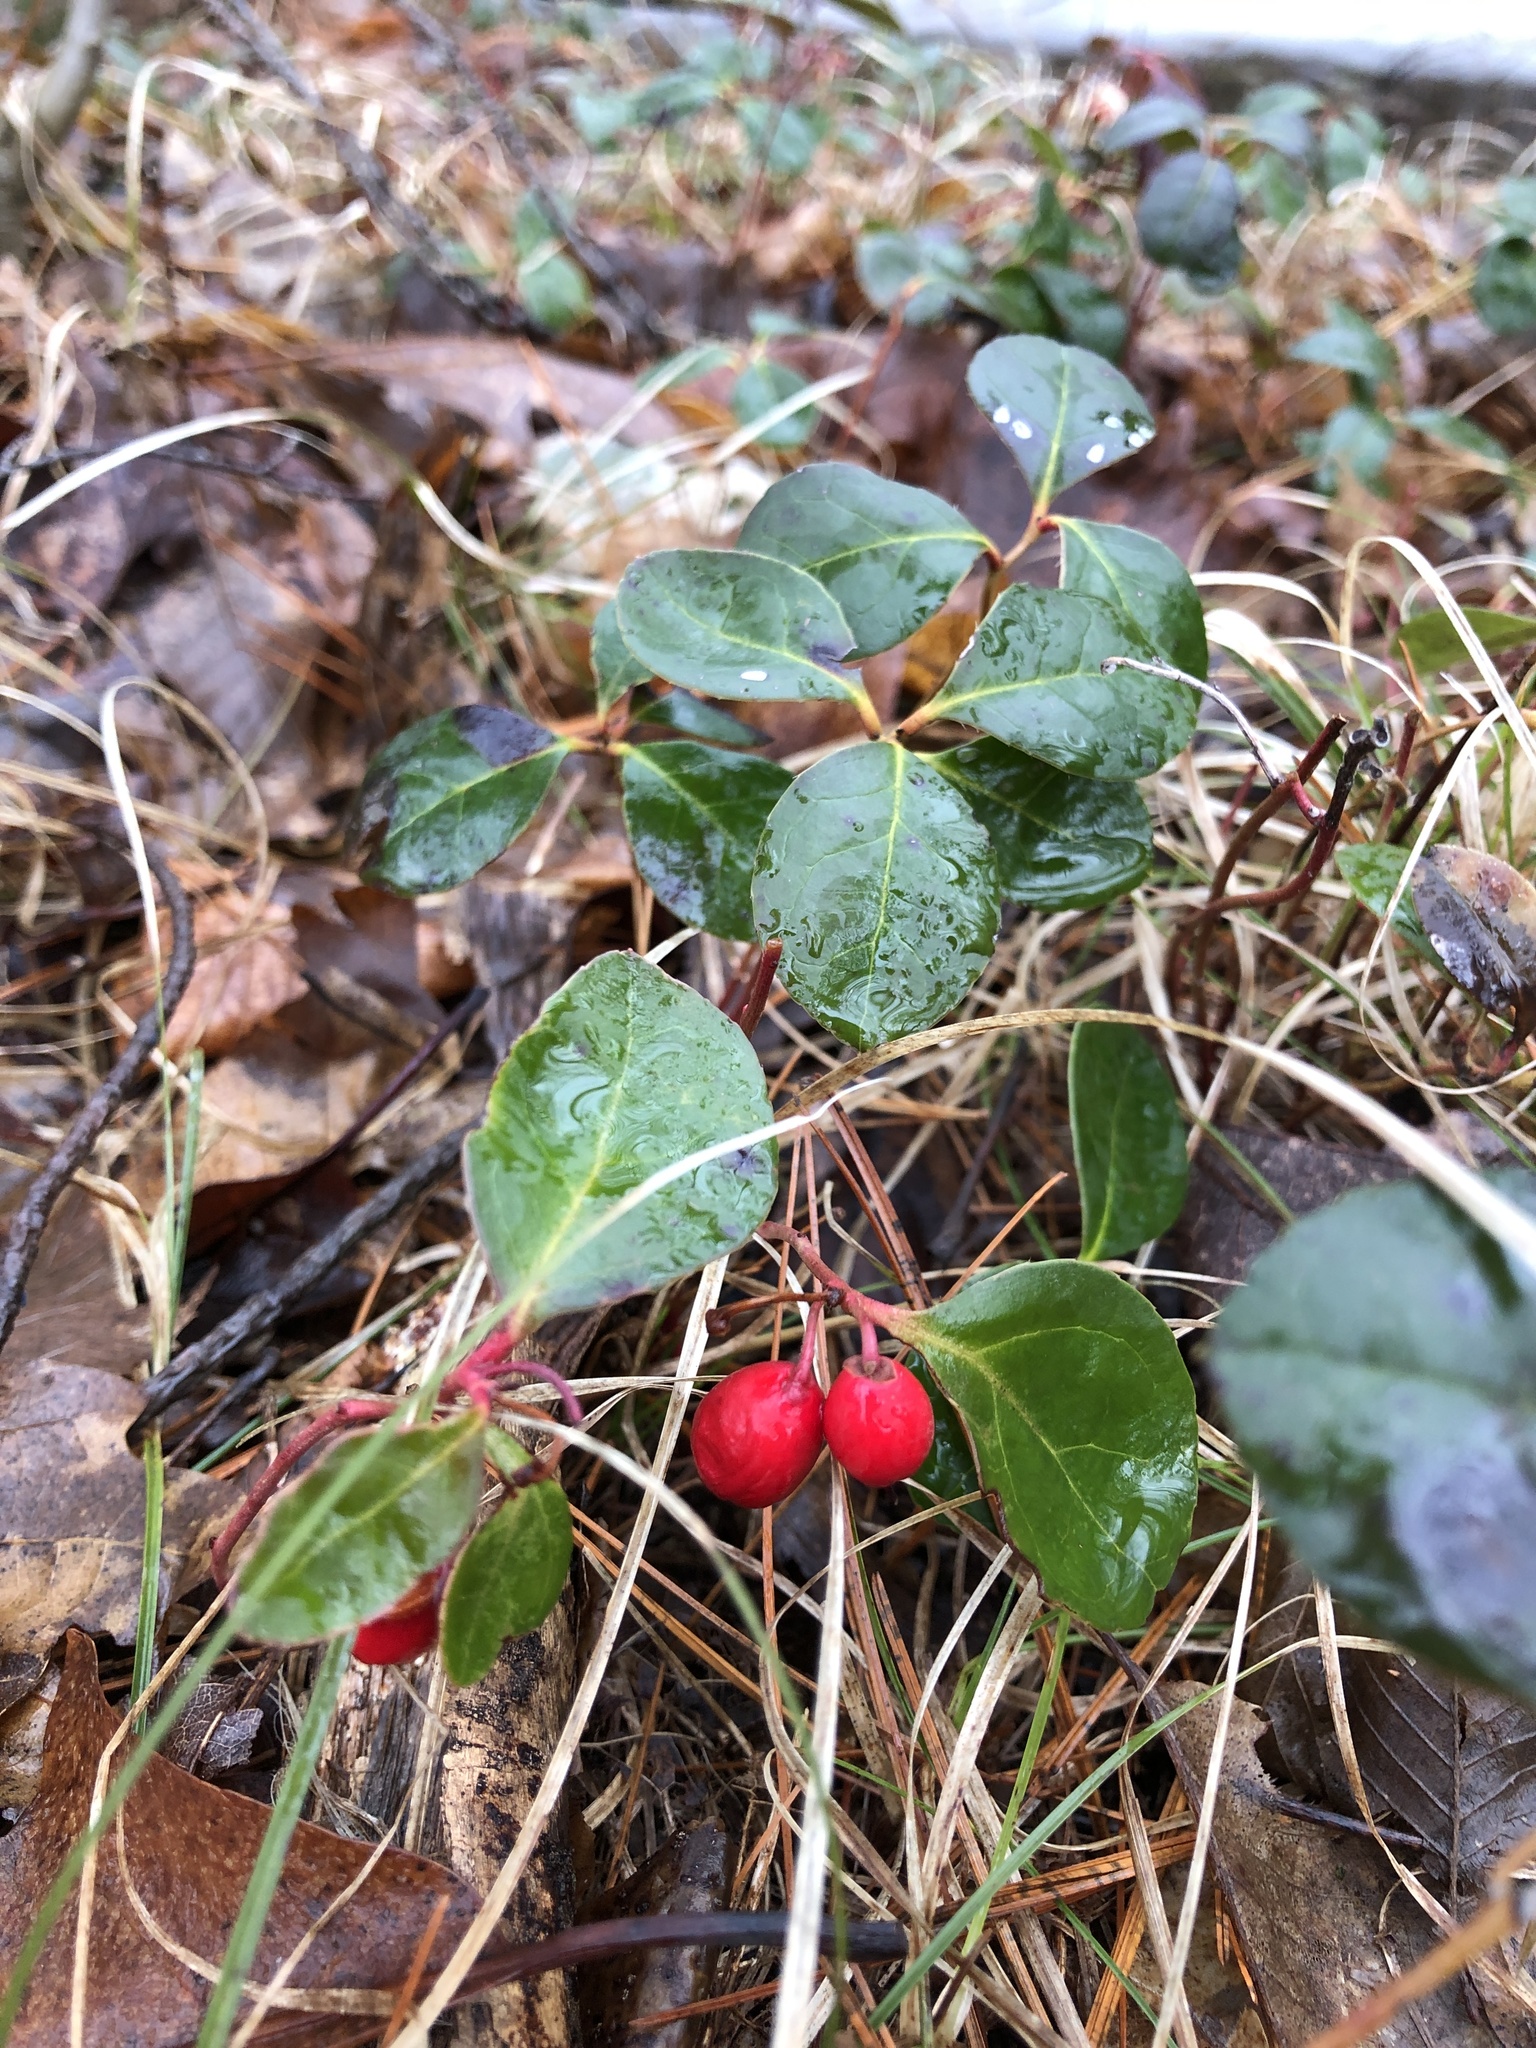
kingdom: Plantae
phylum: Tracheophyta
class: Magnoliopsida
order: Ericales
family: Ericaceae
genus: Gaultheria
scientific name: Gaultheria procumbens
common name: Checkerberry
